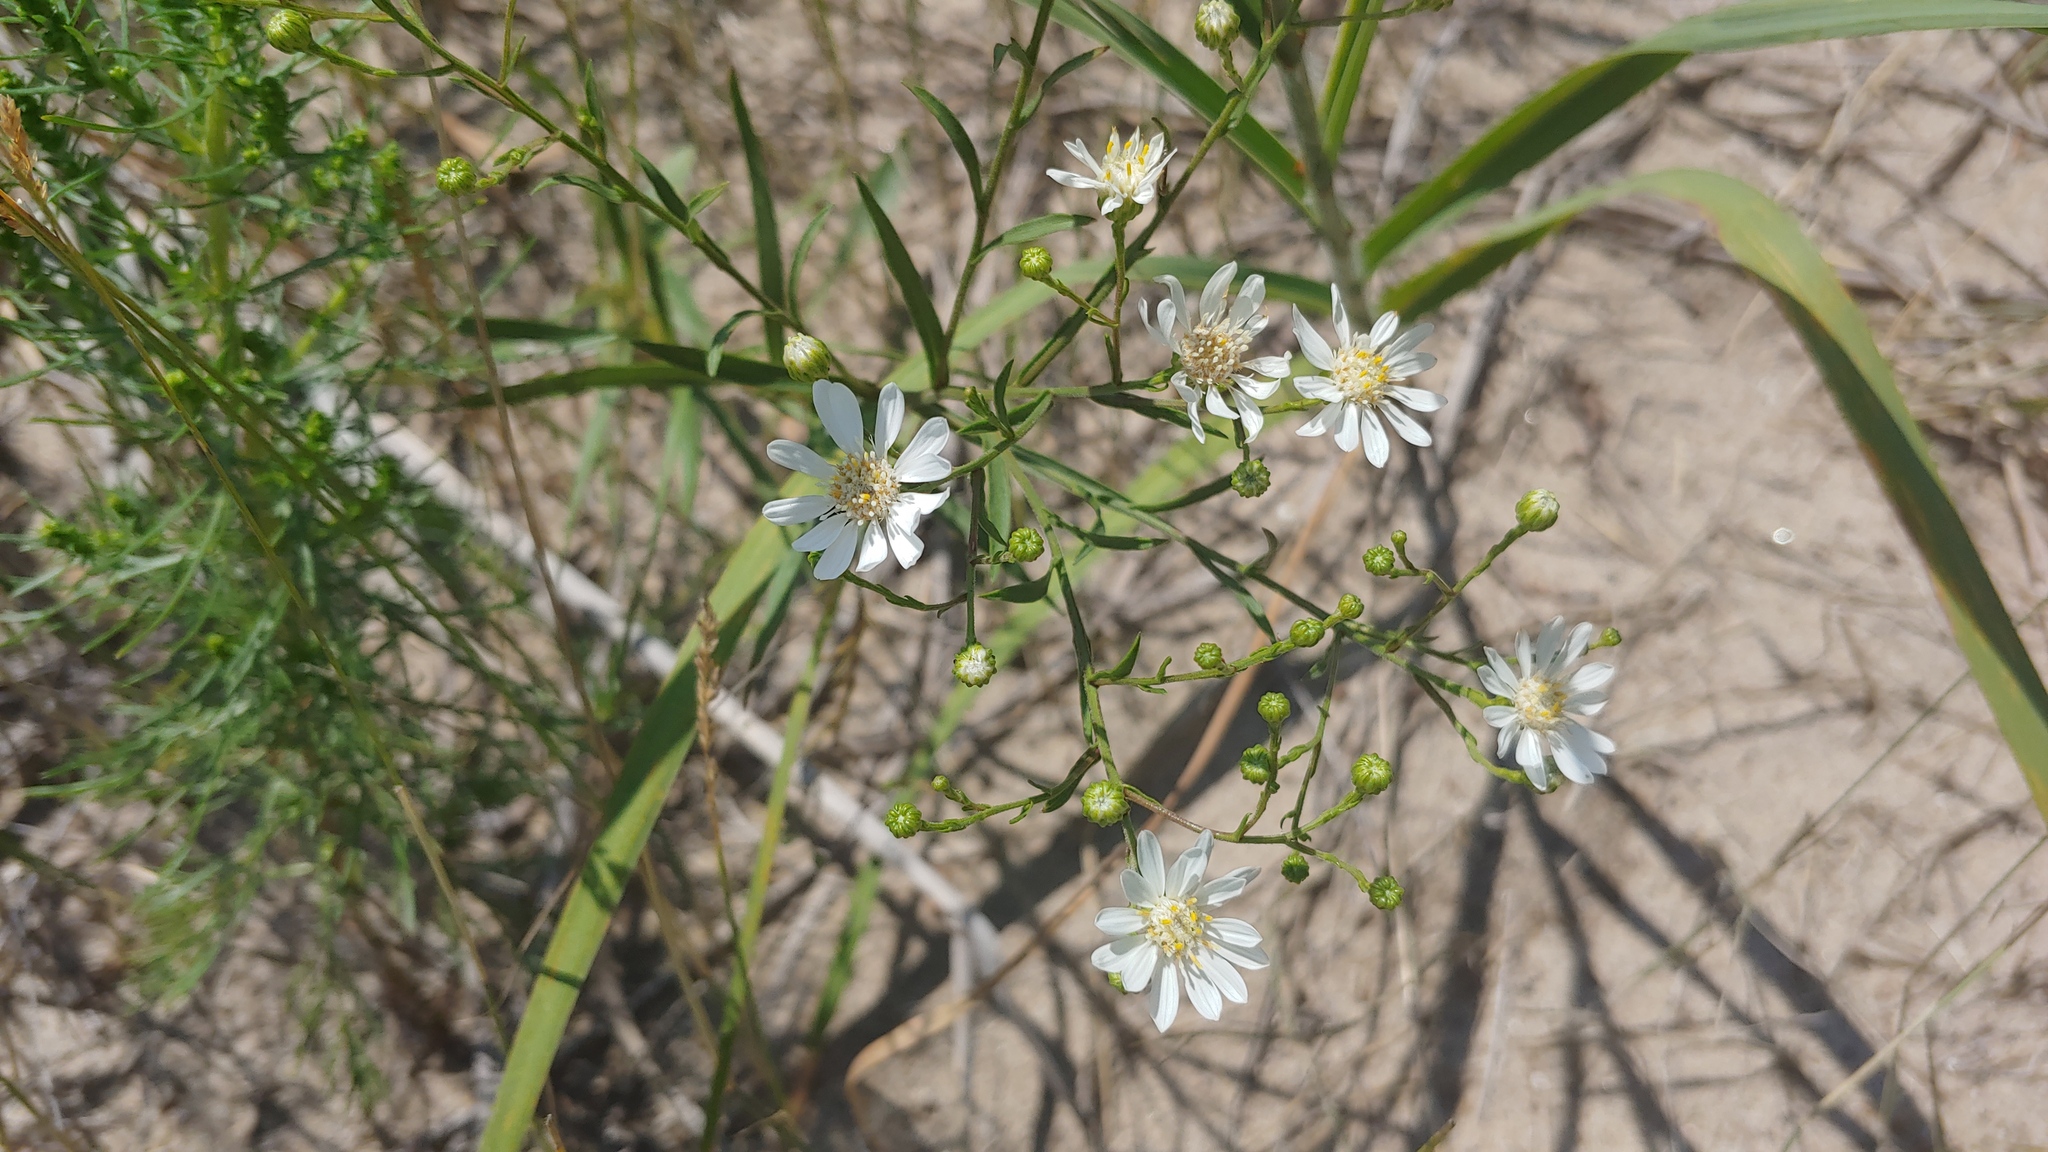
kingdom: Plantae
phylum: Tracheophyta
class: Magnoliopsida
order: Asterales
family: Asteraceae
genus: Solidago
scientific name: Solidago ptarmicoides
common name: White flat-top goldenrod
